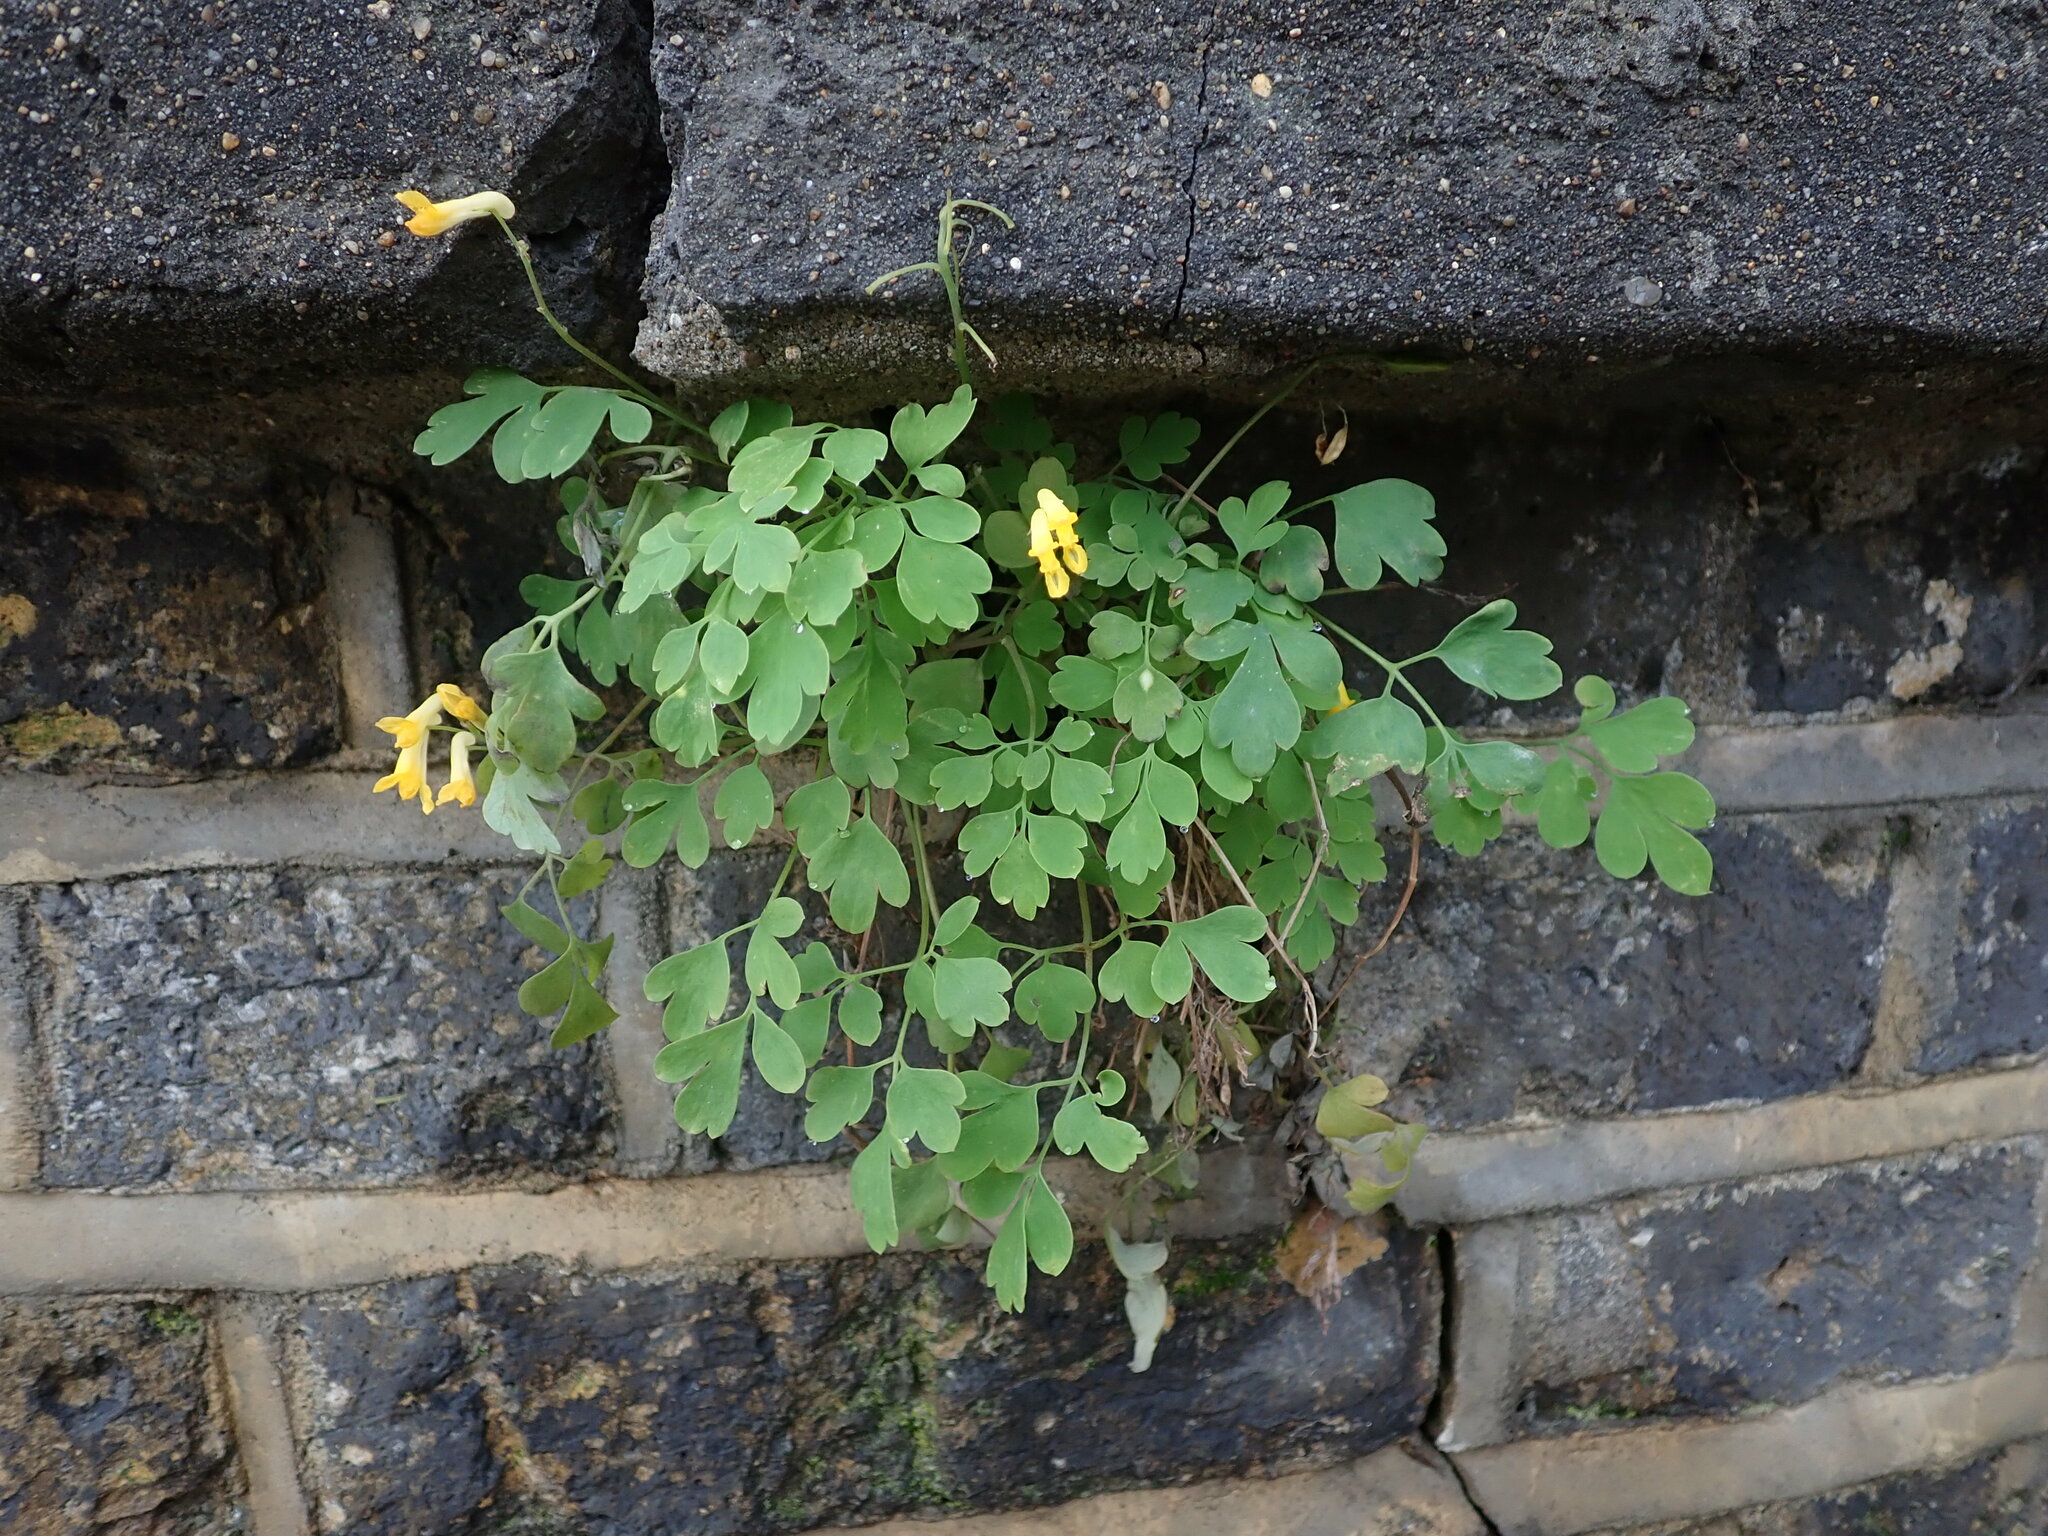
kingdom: Plantae
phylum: Tracheophyta
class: Magnoliopsida
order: Ranunculales
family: Papaveraceae
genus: Pseudofumaria
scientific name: Pseudofumaria lutea
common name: Yellow corydalis
